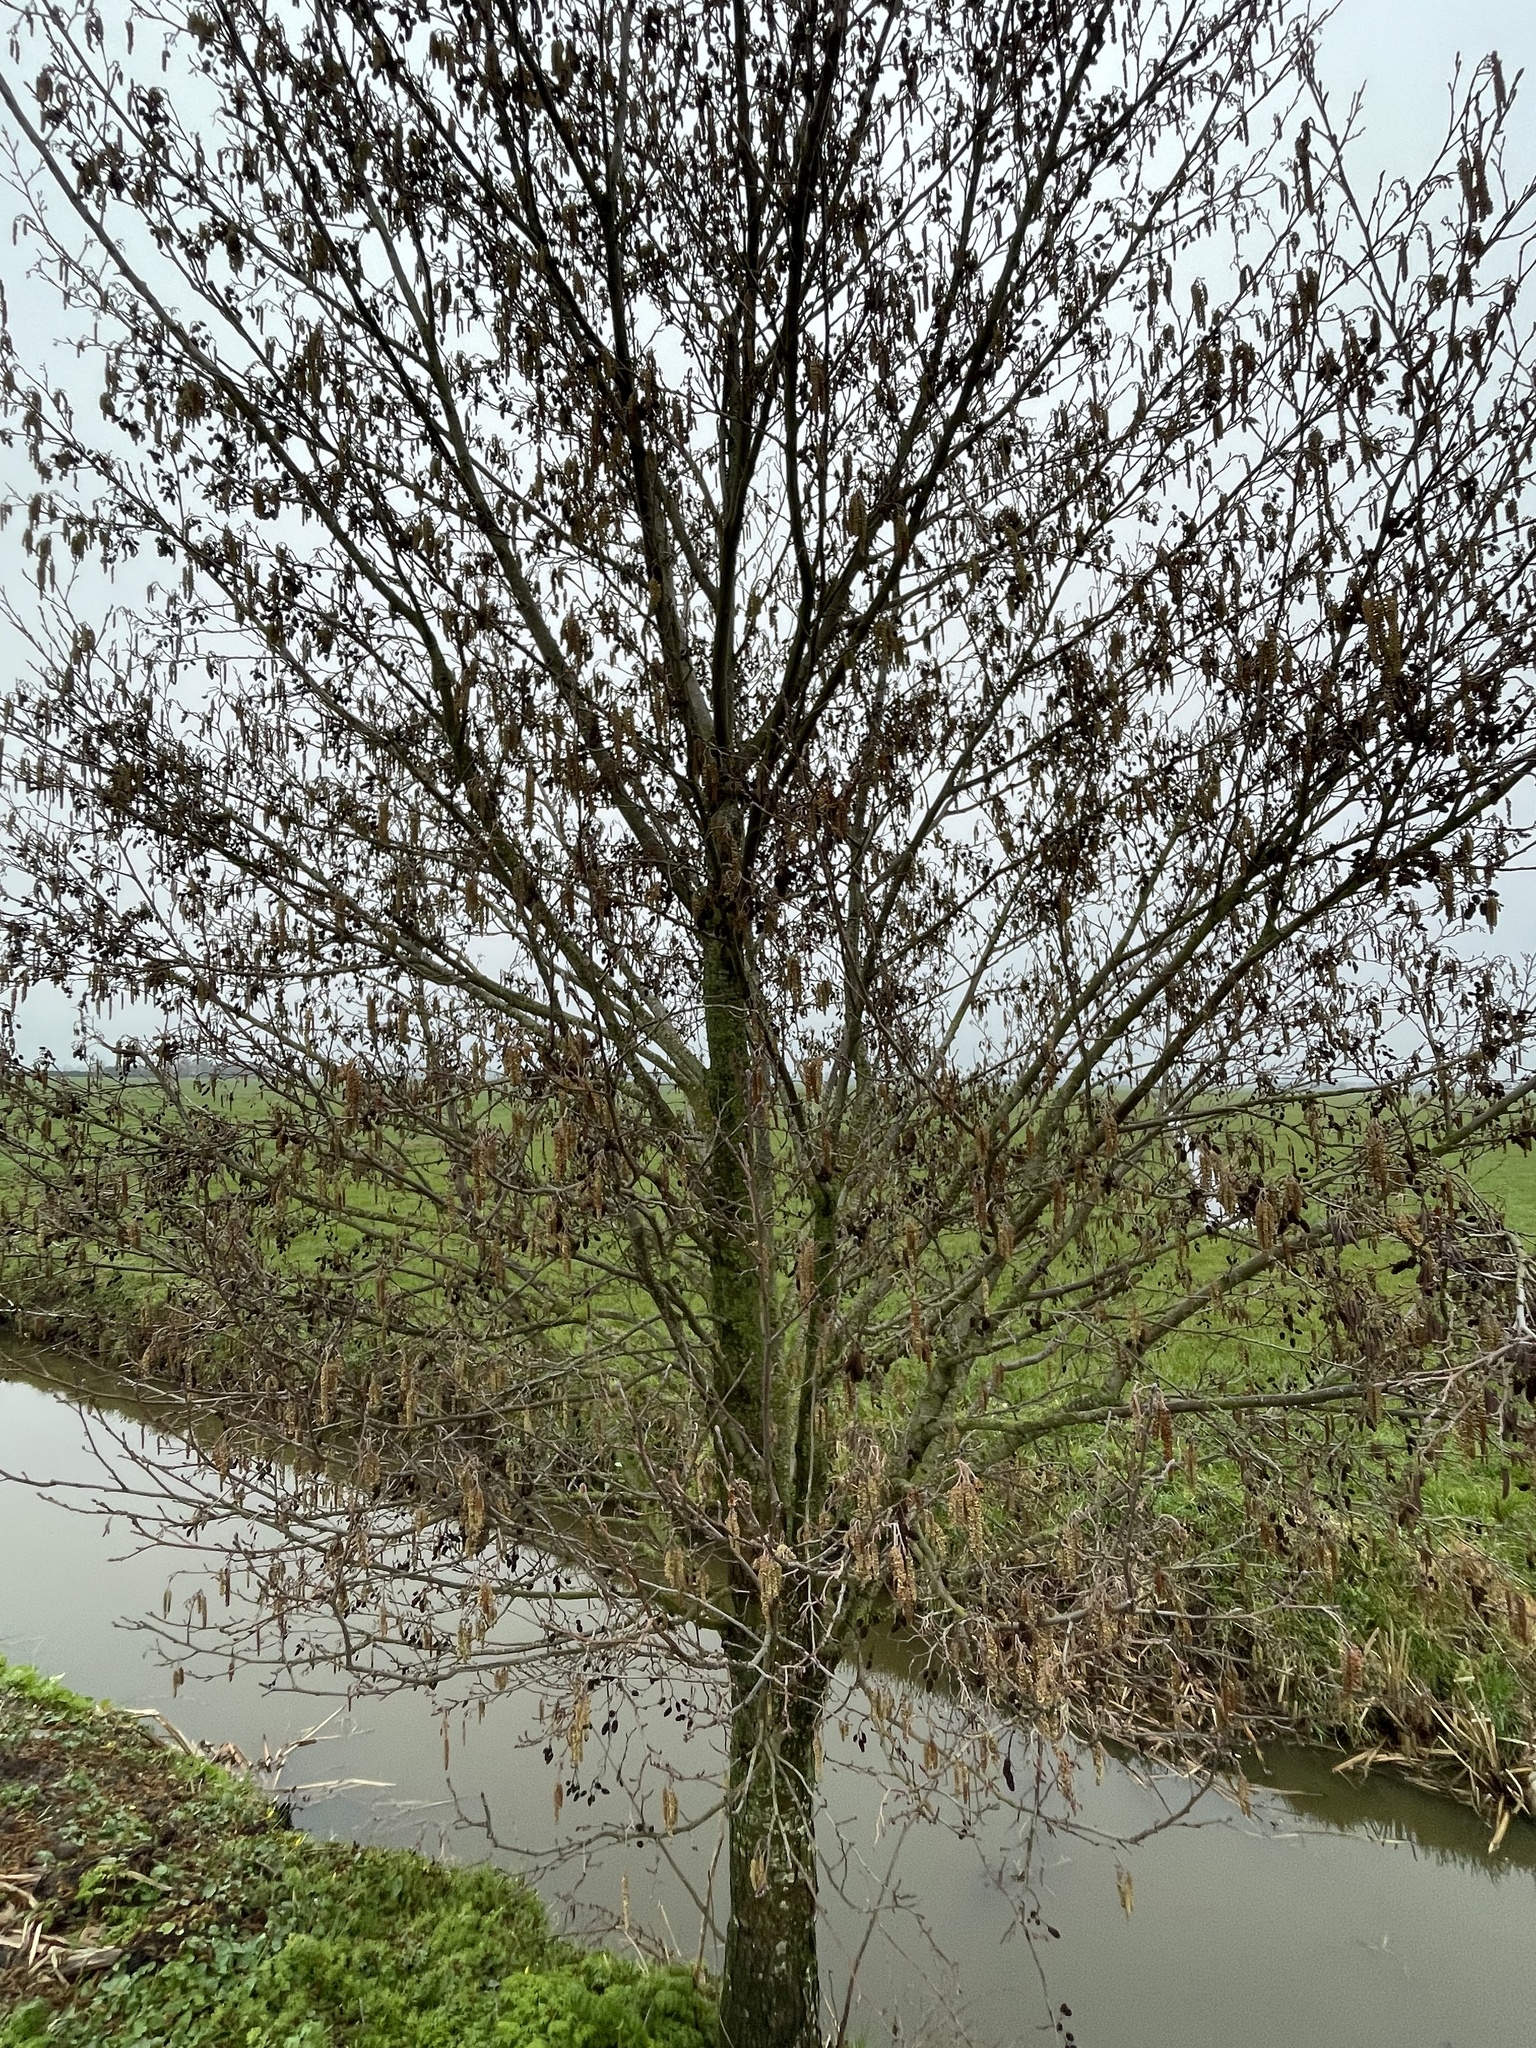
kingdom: Plantae
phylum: Tracheophyta
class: Magnoliopsida
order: Fagales
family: Betulaceae
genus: Alnus
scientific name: Alnus glutinosa
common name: Black alder
